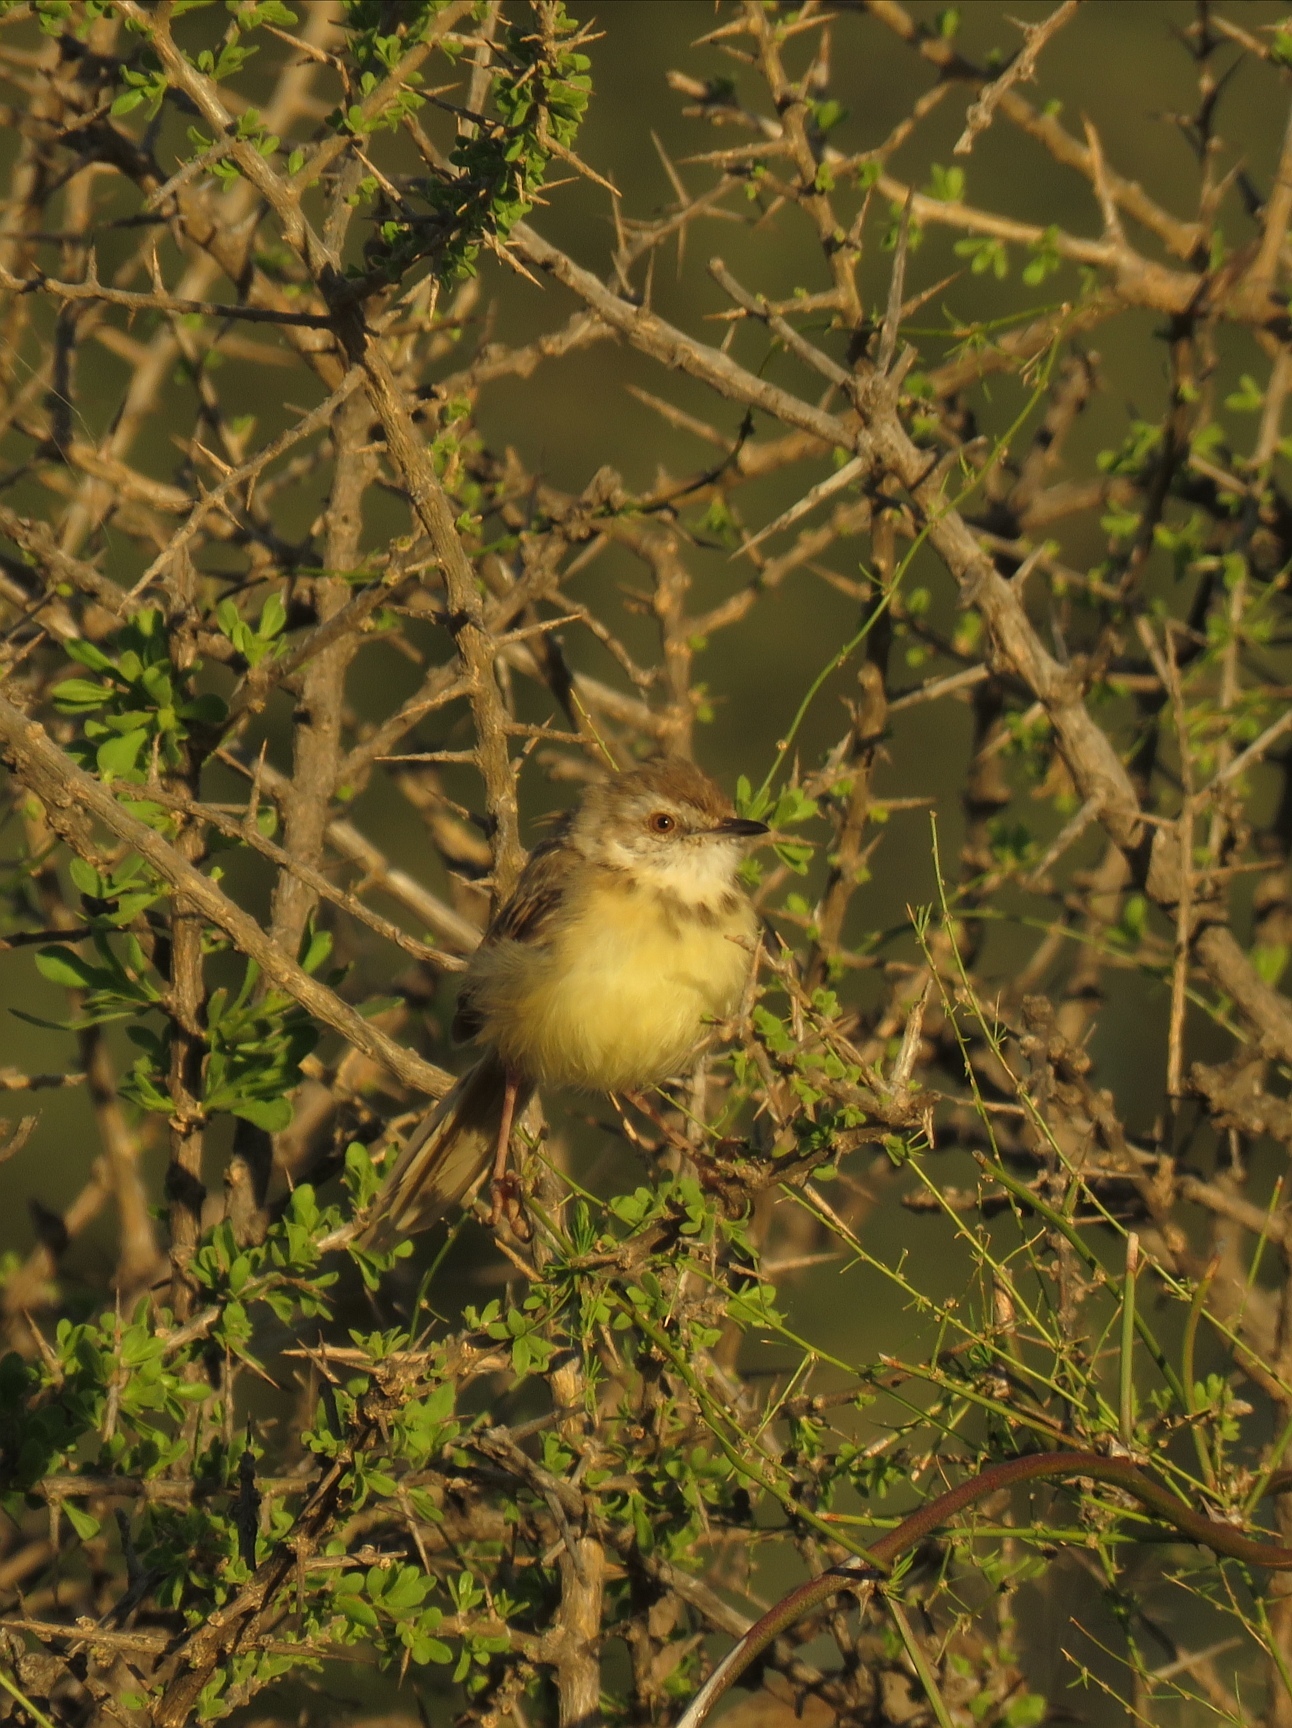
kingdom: Animalia
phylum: Chordata
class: Aves
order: Passeriformes
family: Cisticolidae
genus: Prinia
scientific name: Prinia flavicans
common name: Black-chested prinia
